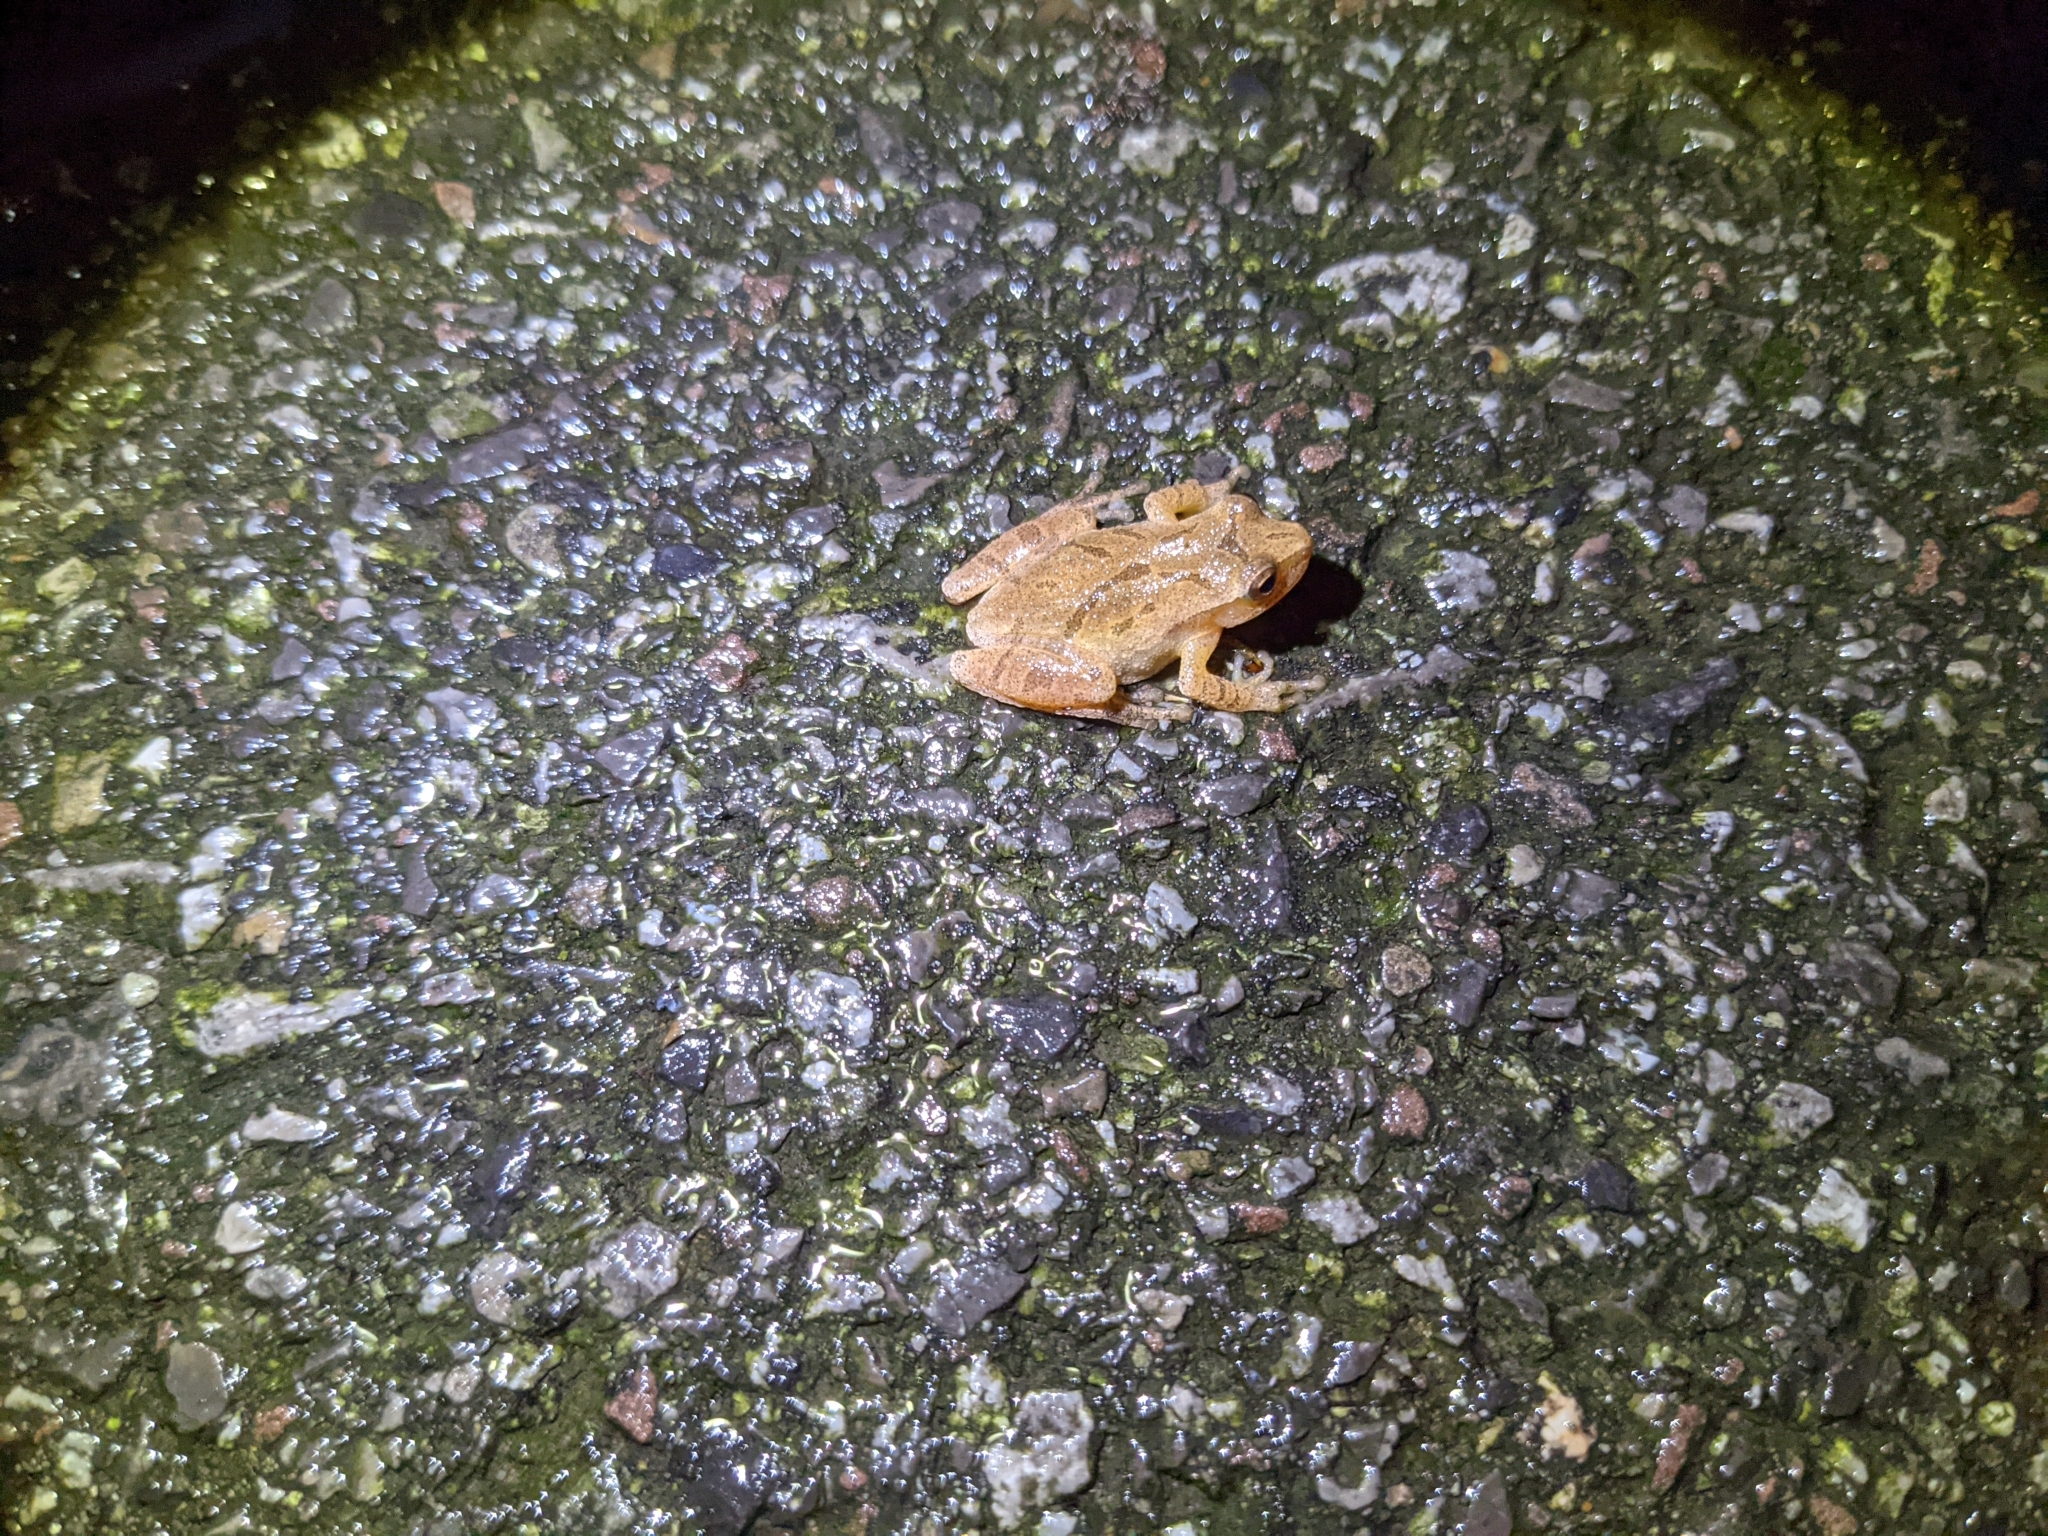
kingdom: Animalia
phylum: Chordata
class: Amphibia
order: Anura
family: Hylidae
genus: Pseudacris
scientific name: Pseudacris crucifer
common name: Spring peeper
